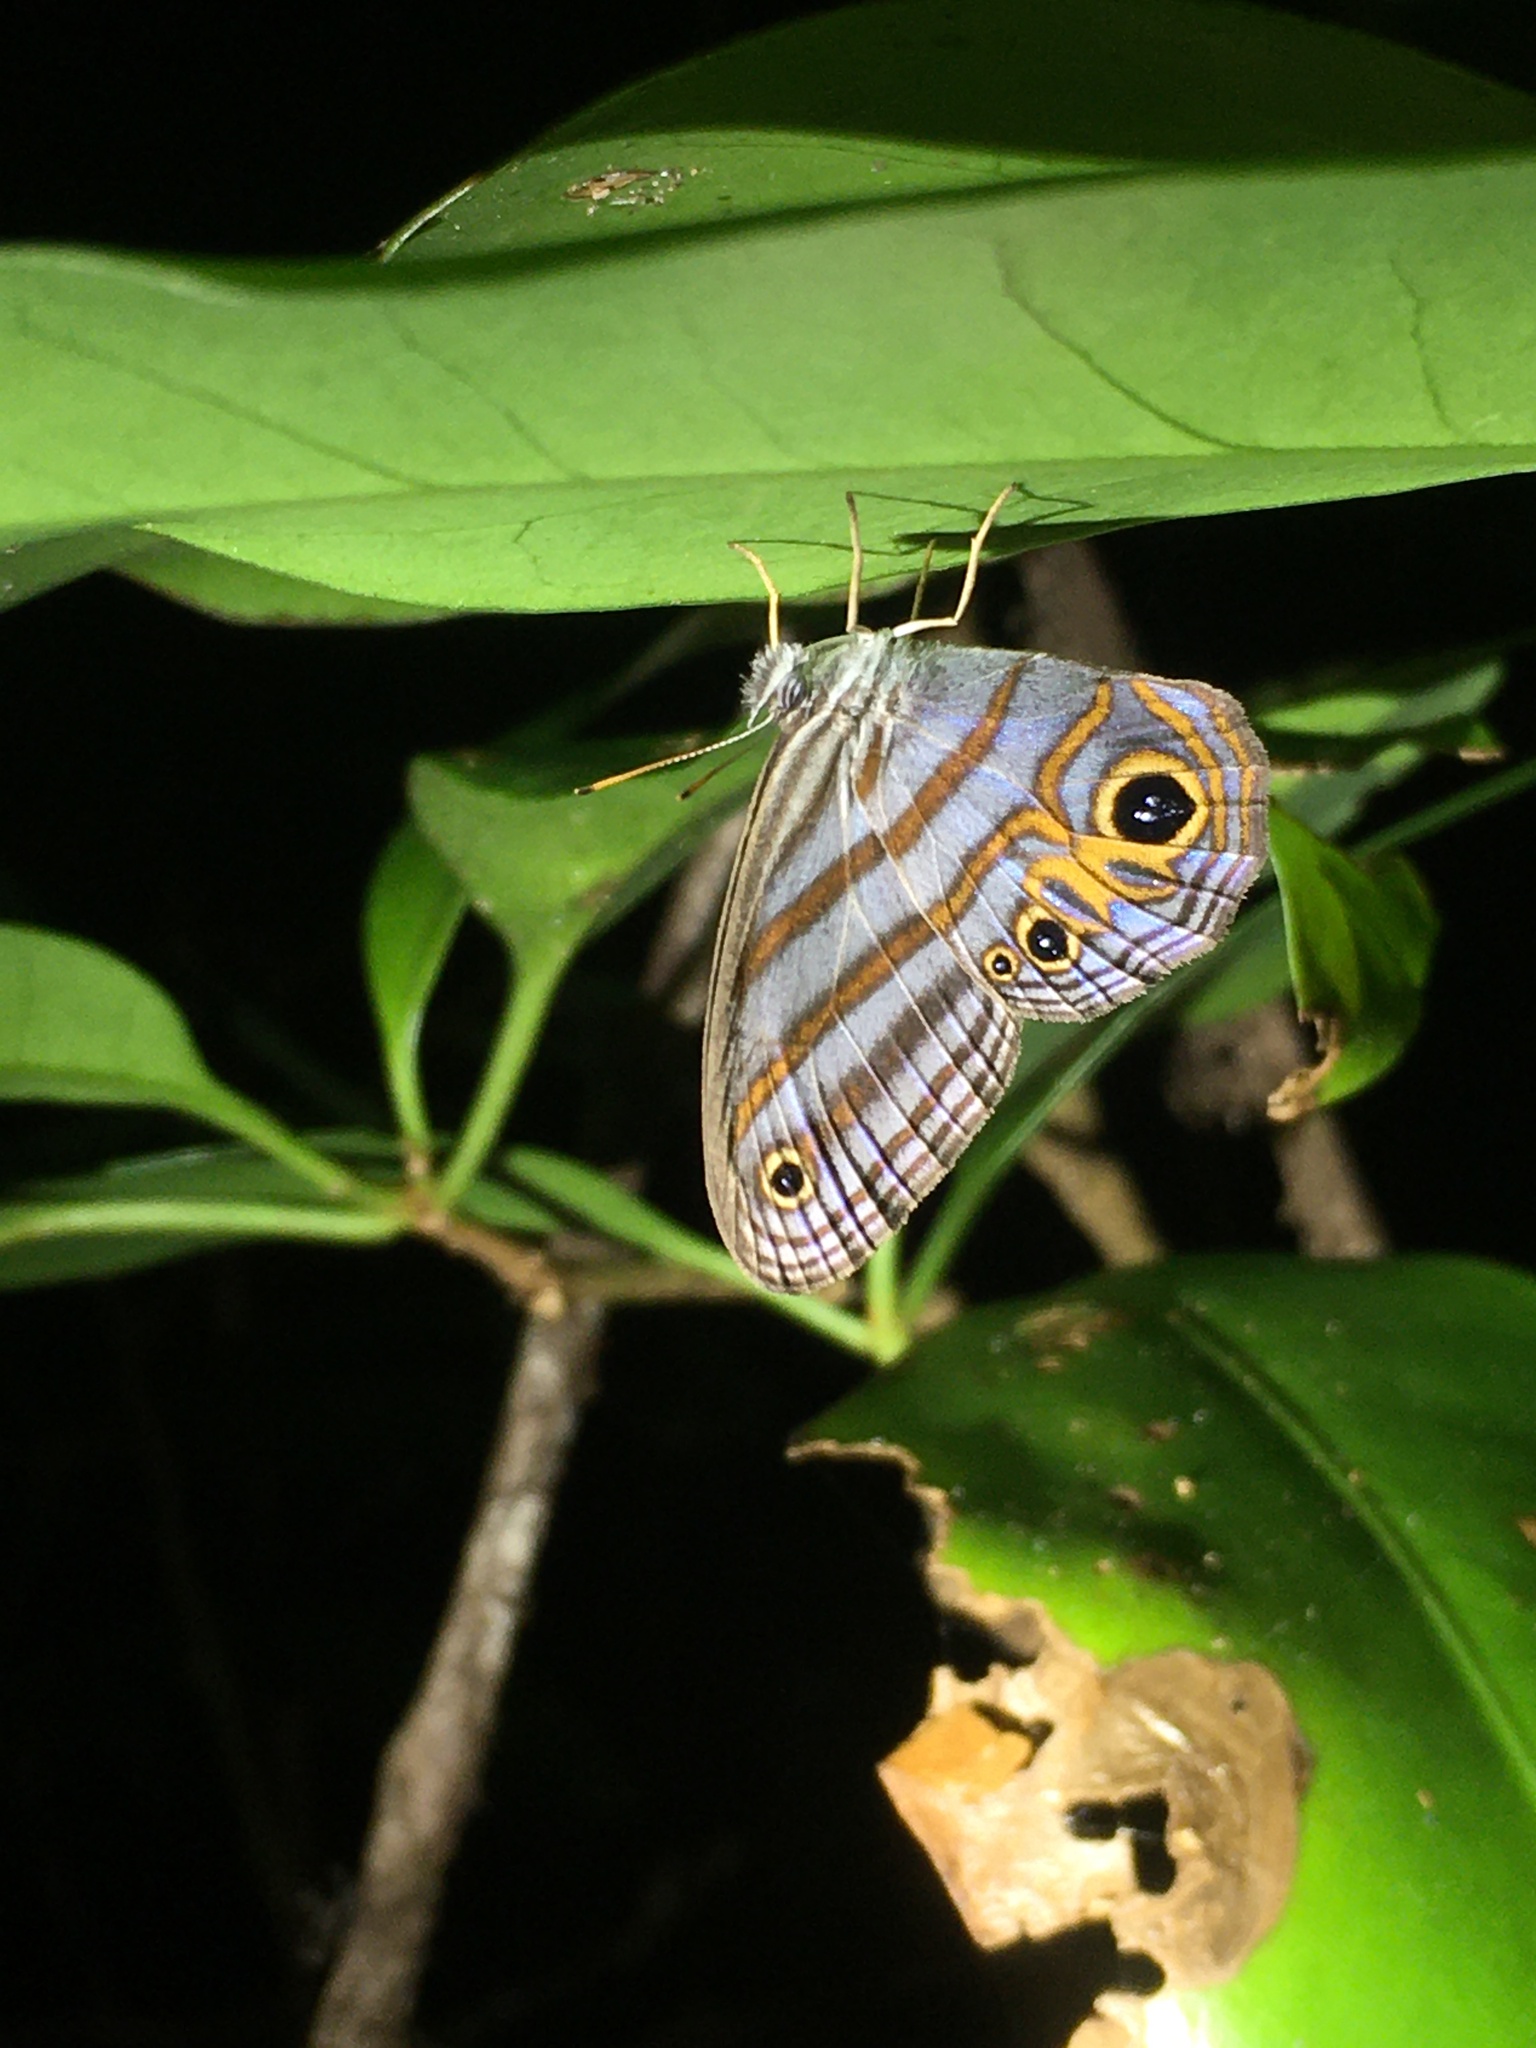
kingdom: Animalia
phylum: Arthropoda
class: Insecta
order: Lepidoptera
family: Nymphalidae
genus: Pseudeuptychia
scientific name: Pseudeuptychia
